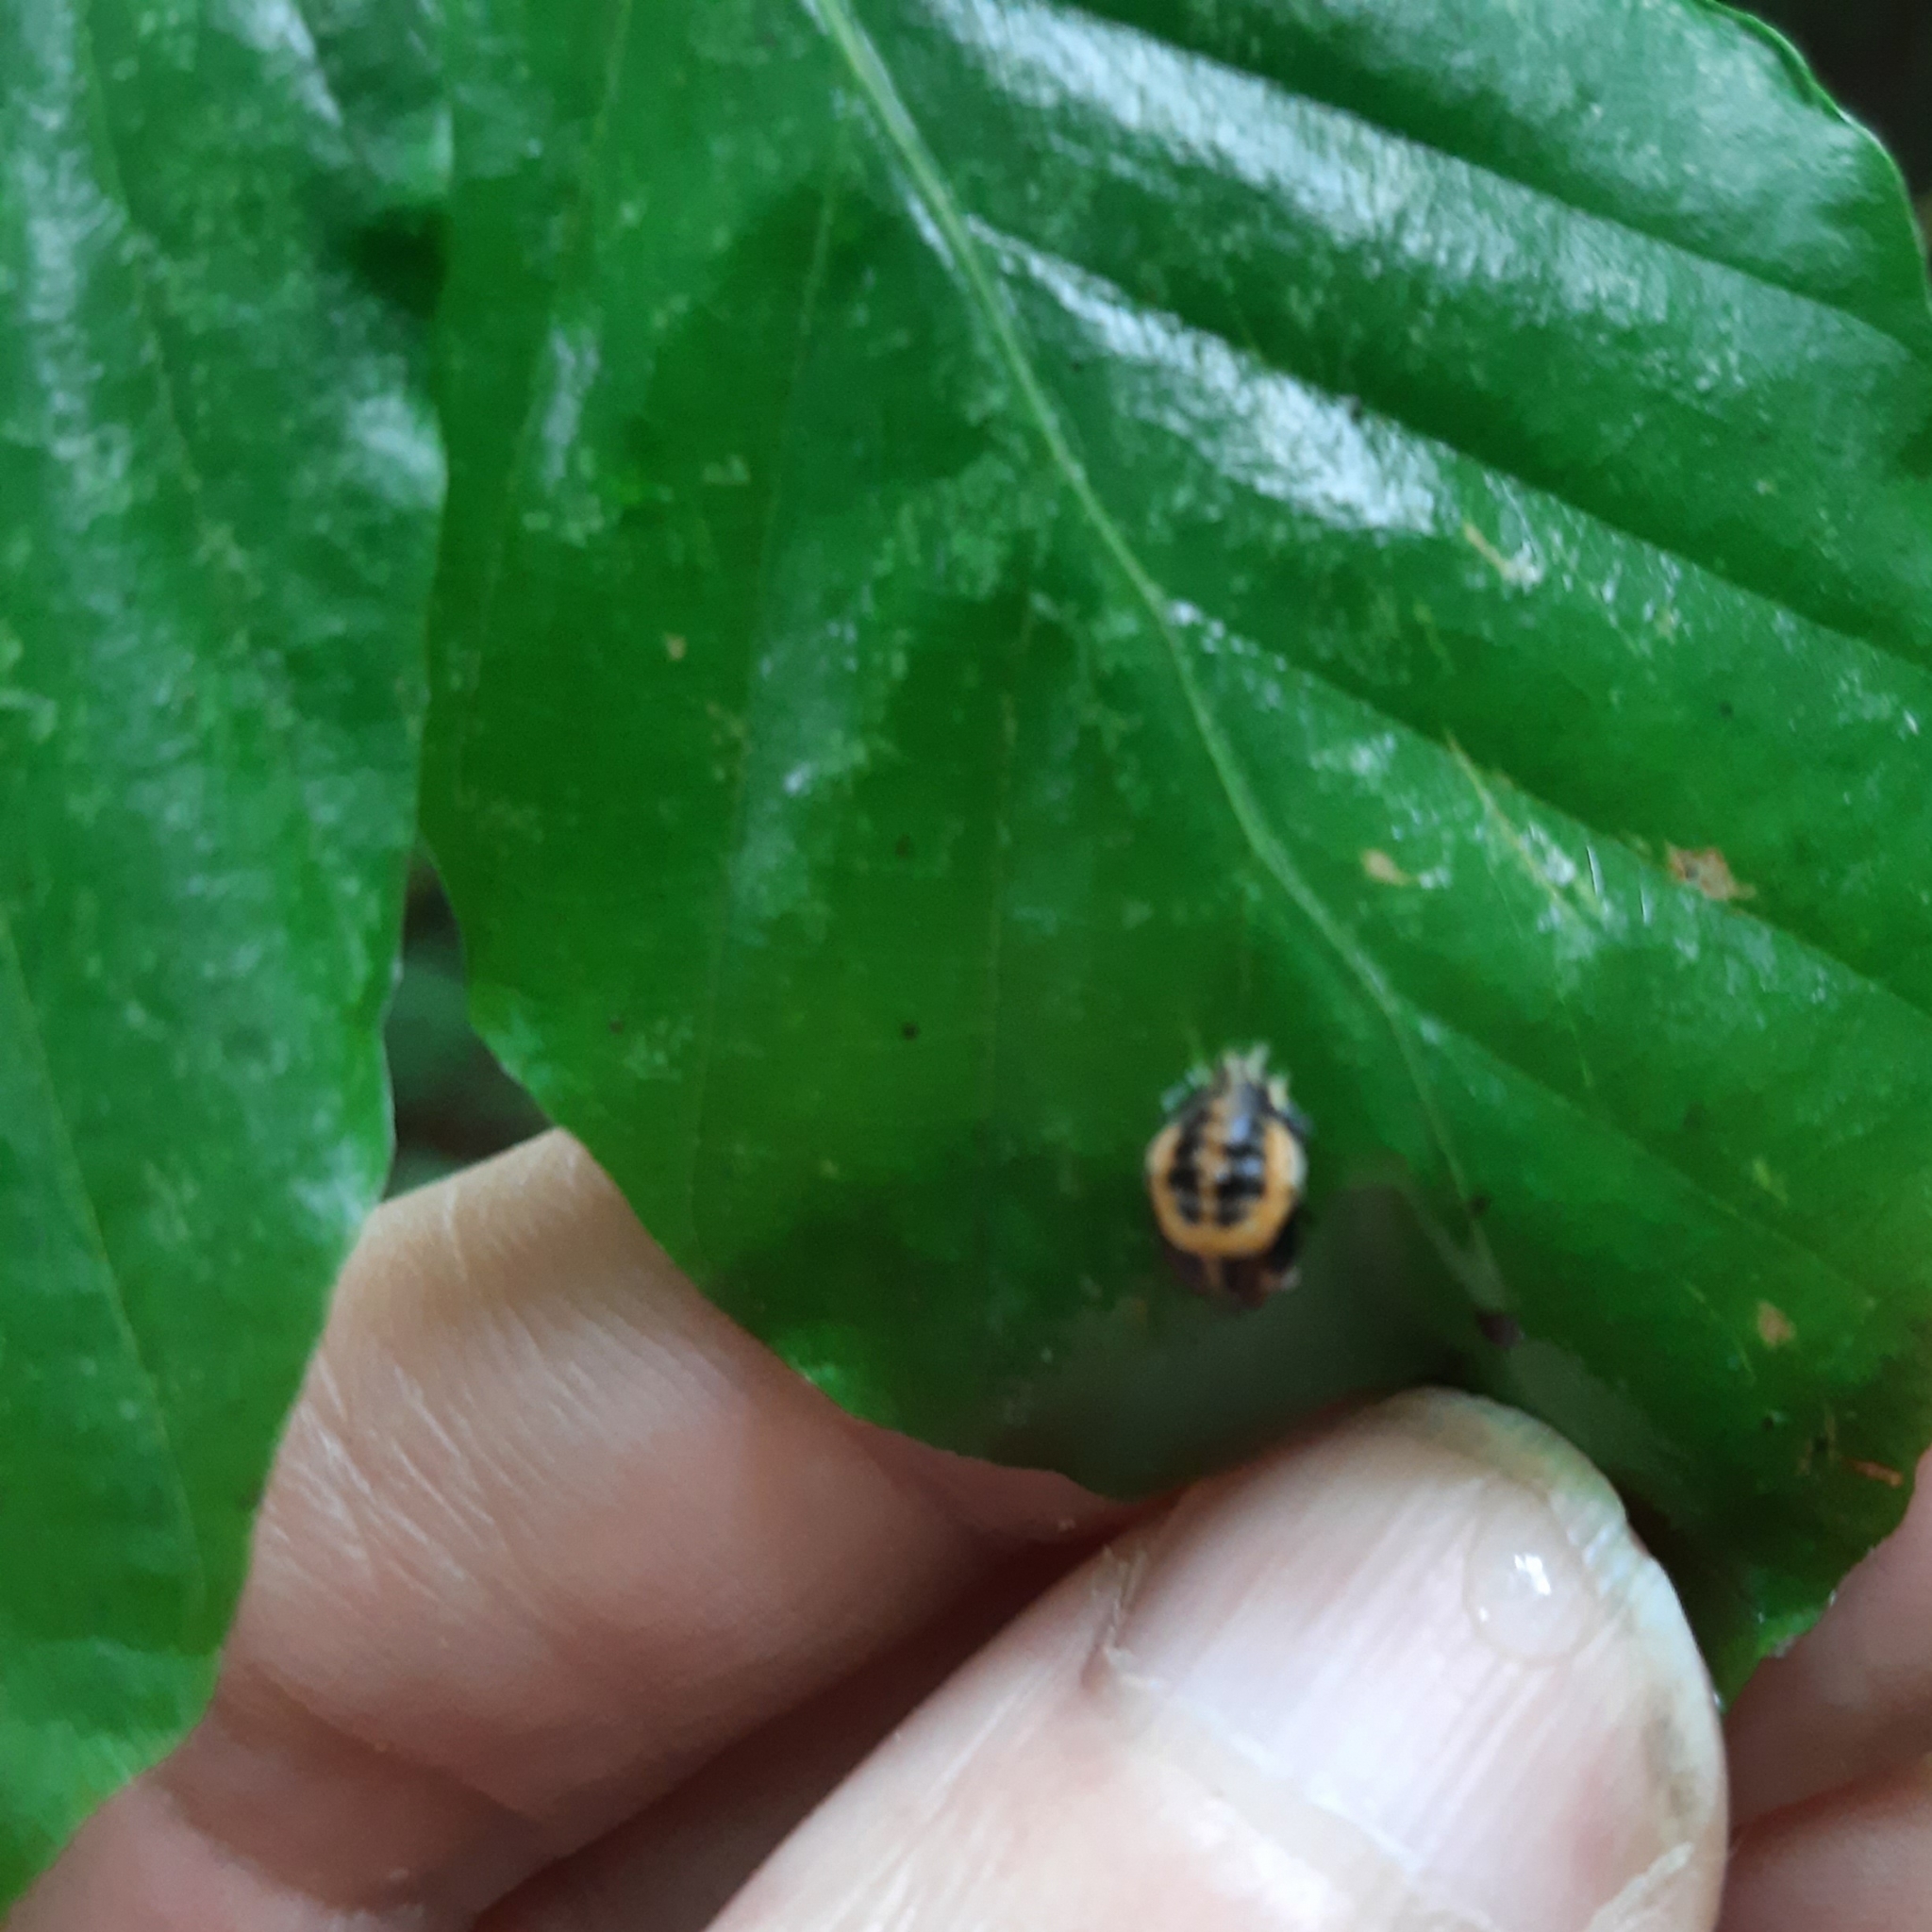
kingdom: Animalia
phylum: Arthropoda
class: Insecta
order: Coleoptera
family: Coccinellidae
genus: Harmonia
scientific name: Harmonia axyridis
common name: Harlequin ladybird
